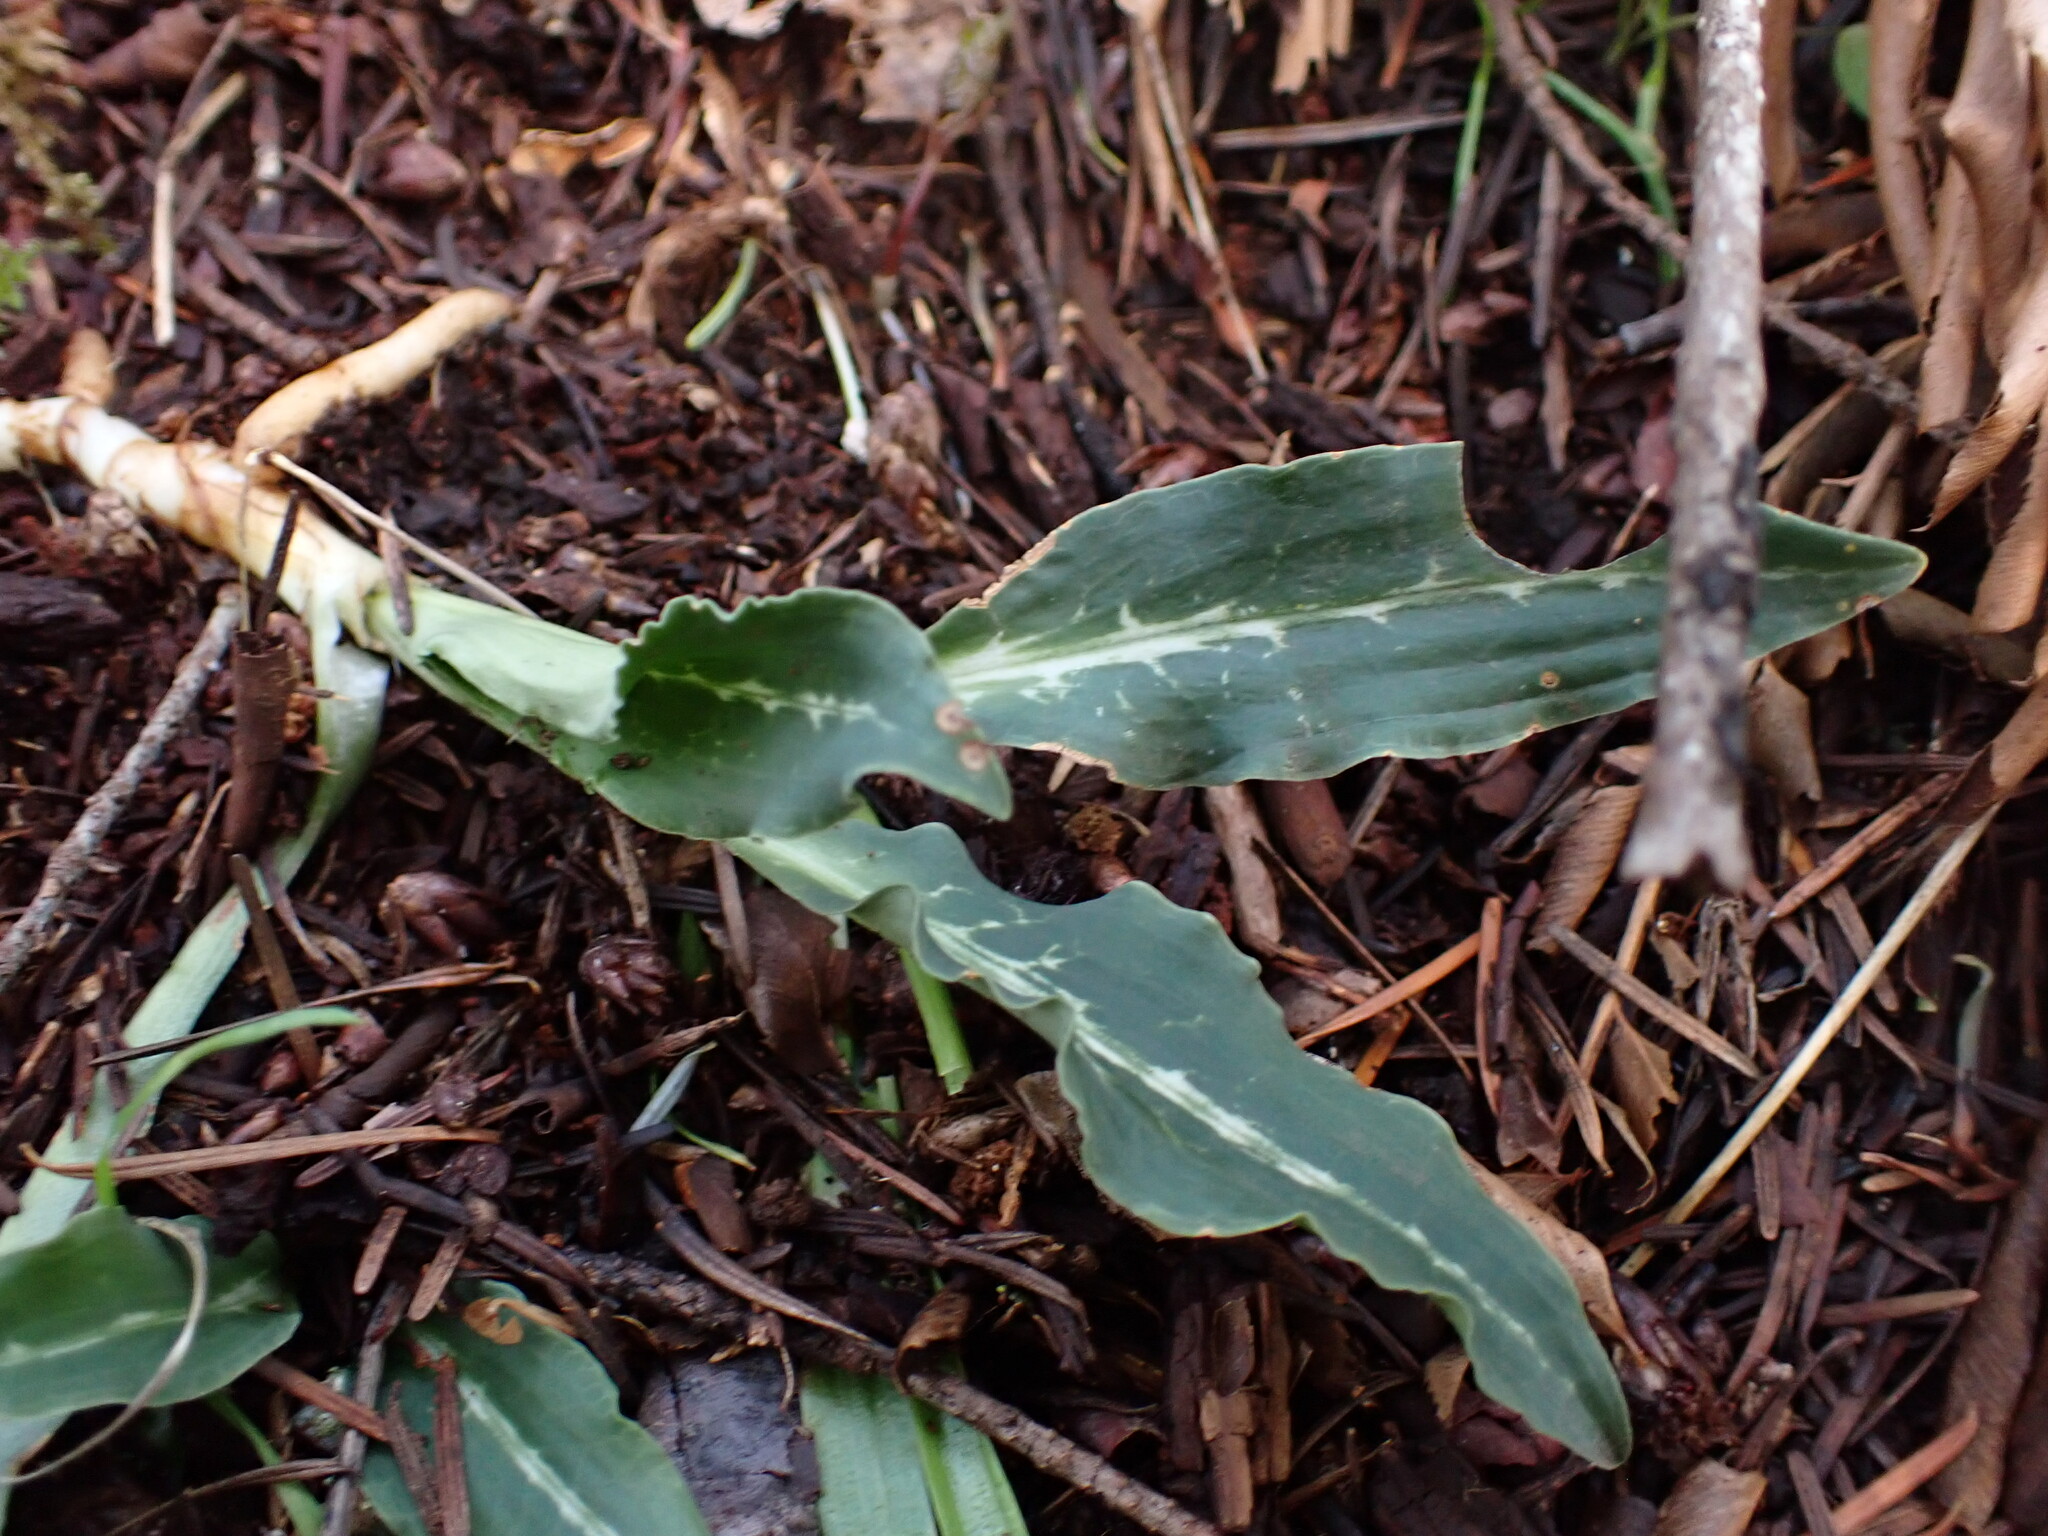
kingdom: Plantae
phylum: Tracheophyta
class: Liliopsida
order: Asparagales
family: Orchidaceae
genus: Goodyera
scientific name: Goodyera oblongifolia
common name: Giant rattlesnake-plantain
